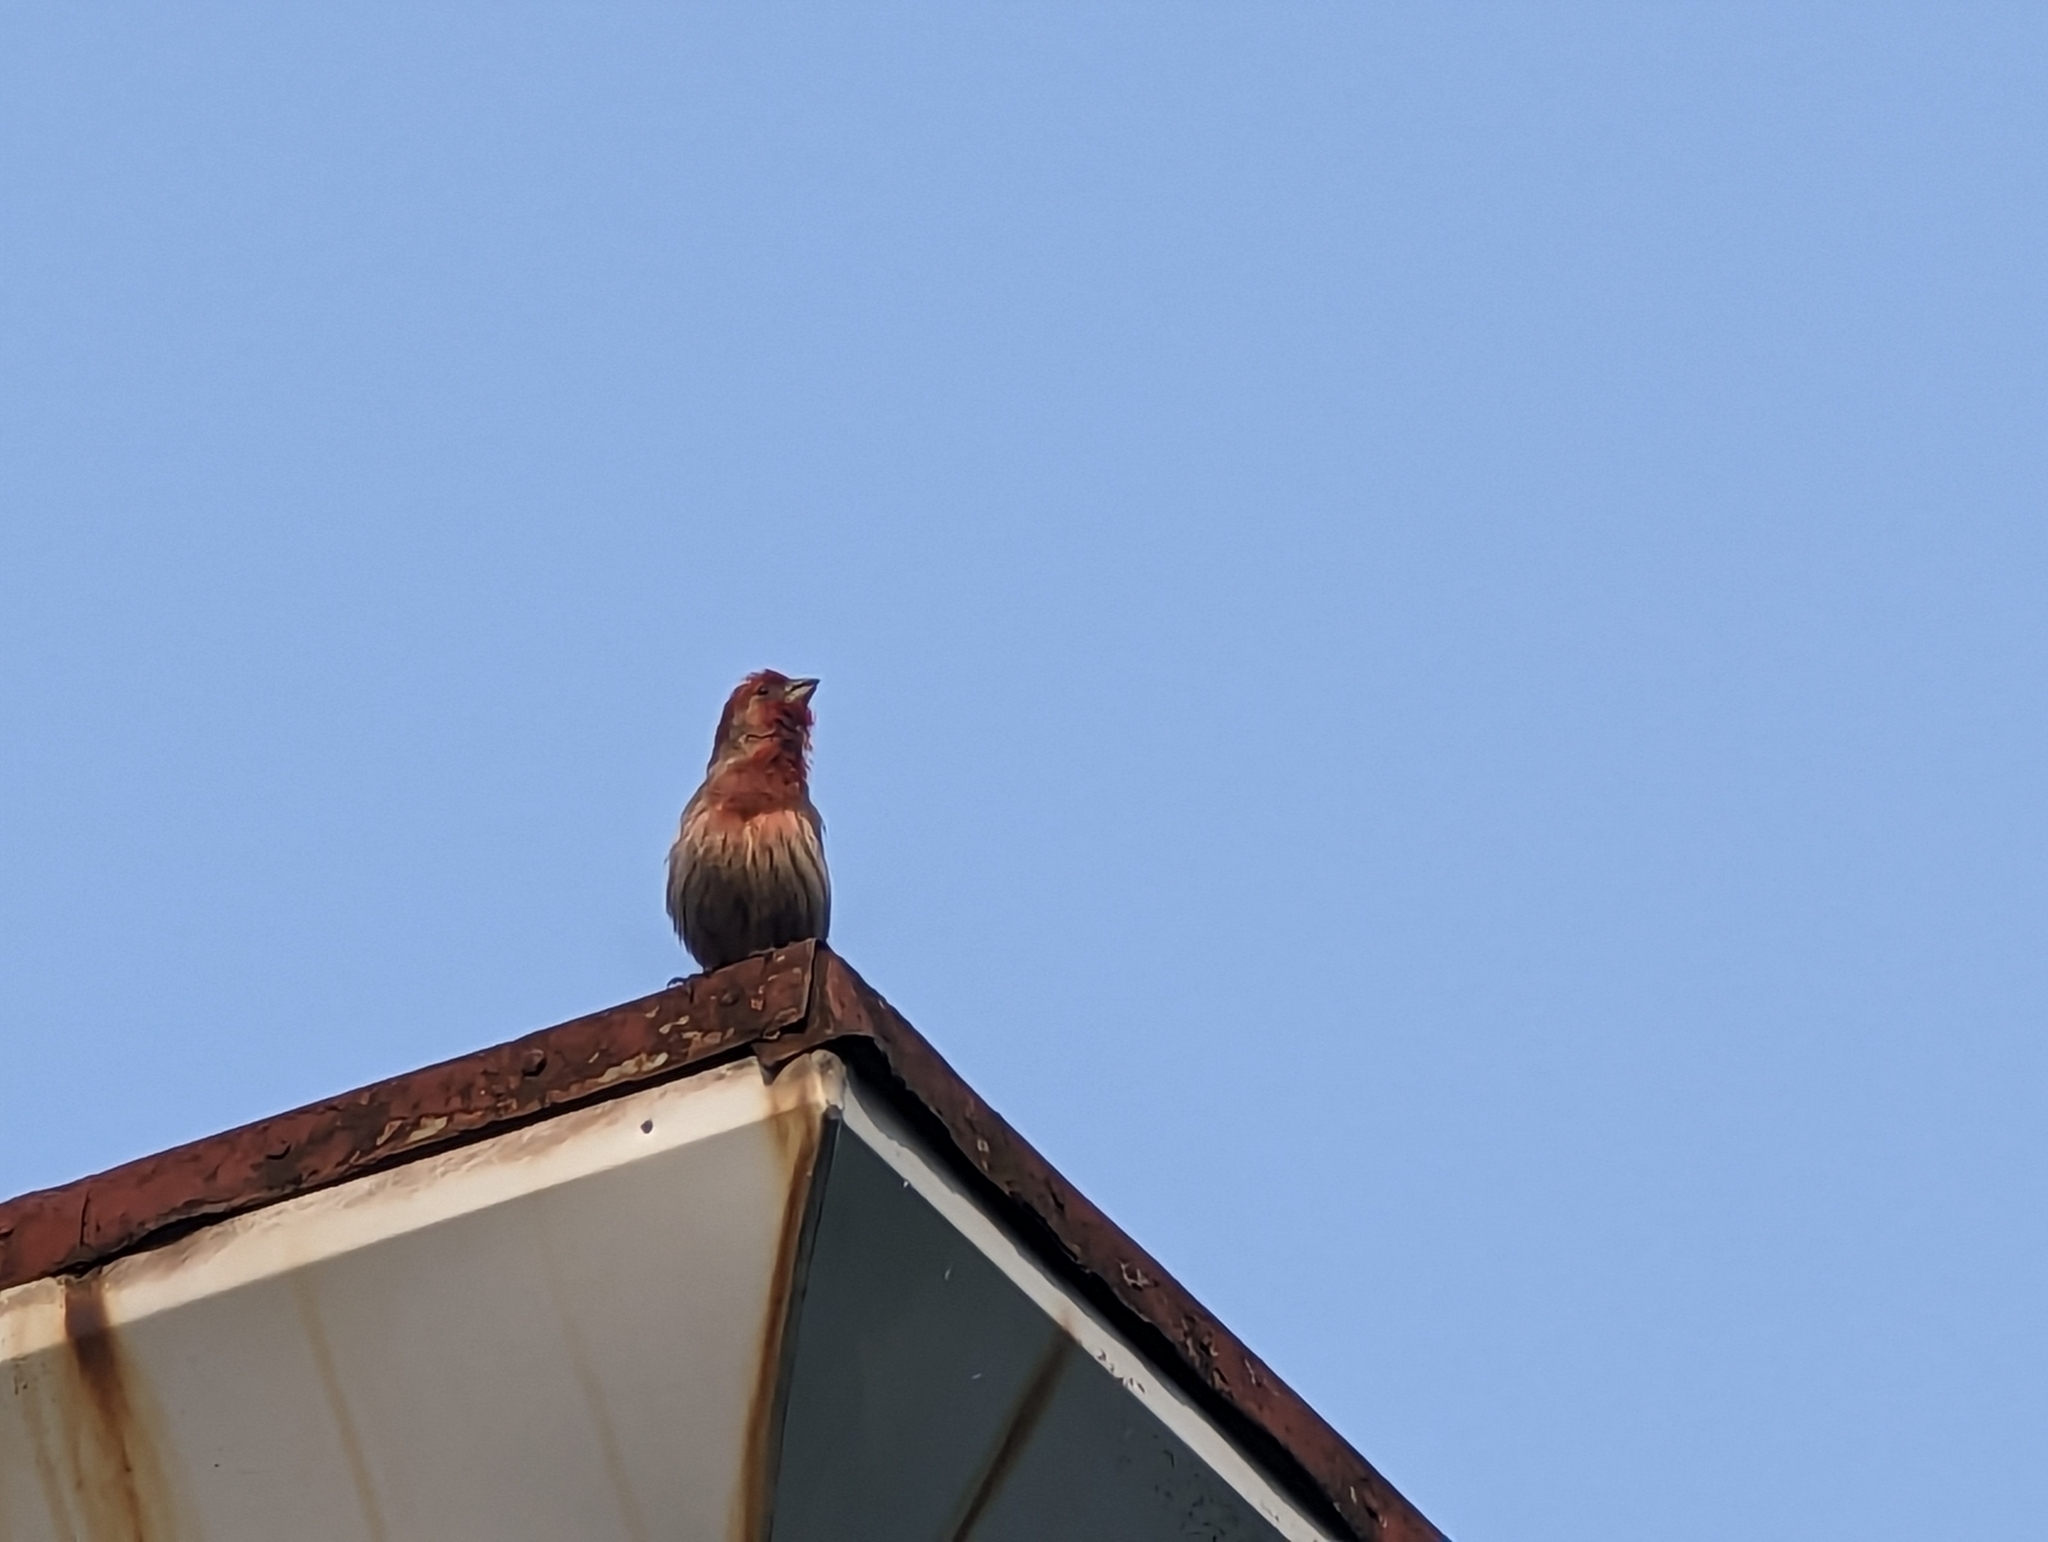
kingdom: Animalia
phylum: Chordata
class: Aves
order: Passeriformes
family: Fringillidae
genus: Haemorhous
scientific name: Haemorhous mexicanus
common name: House finch
